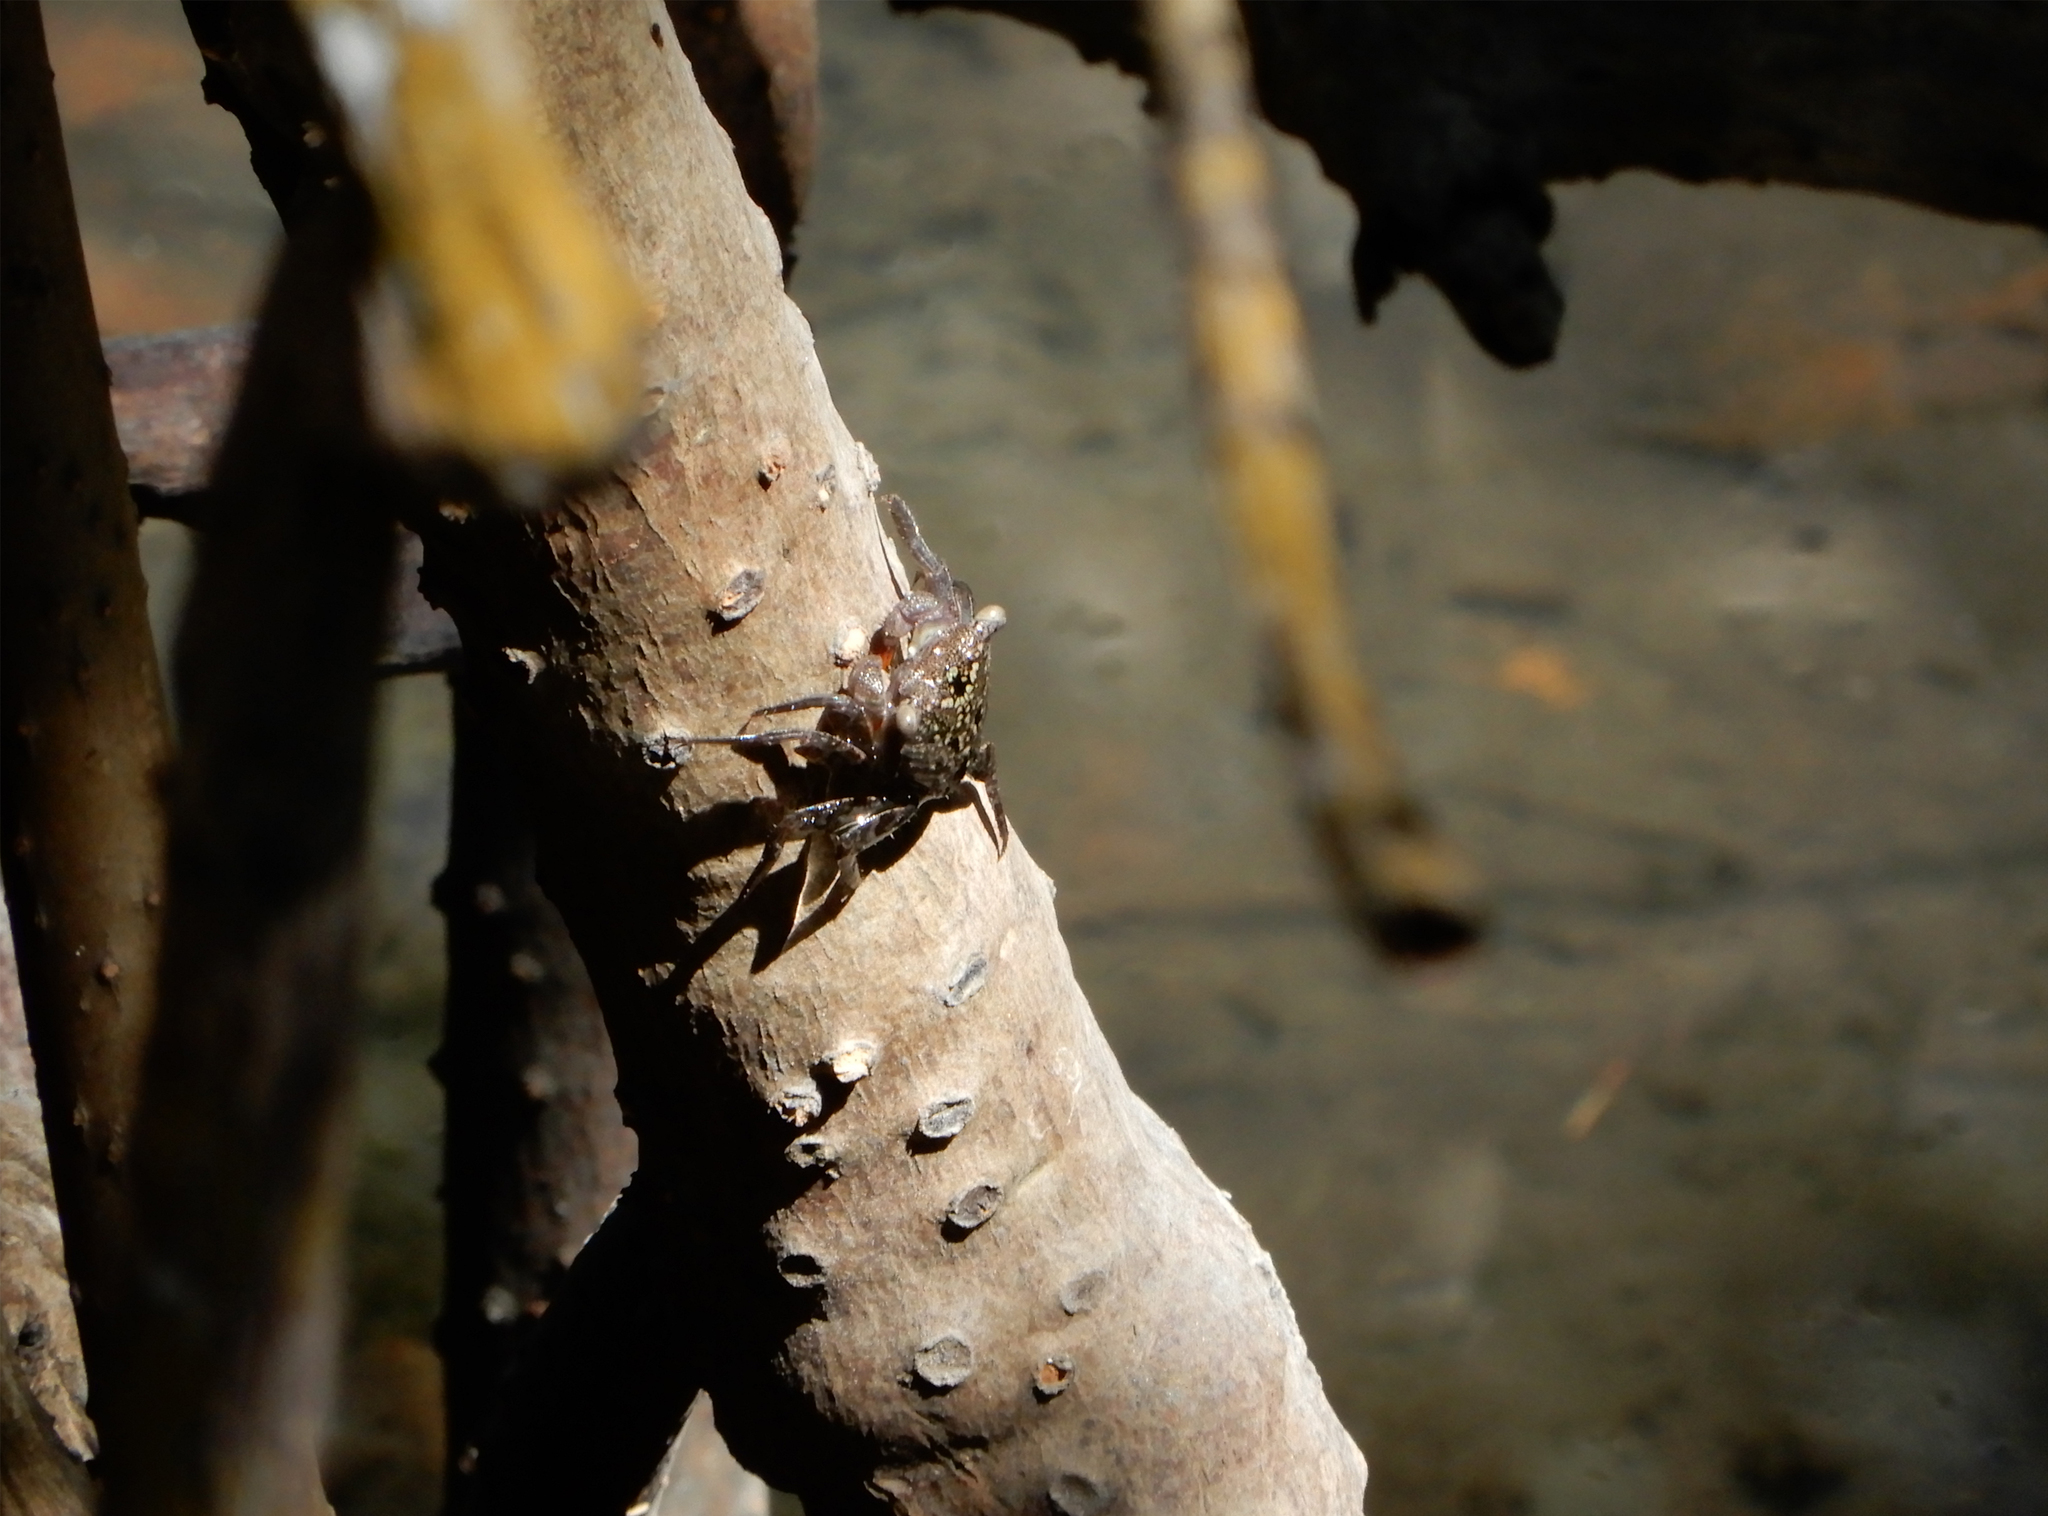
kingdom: Animalia
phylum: Arthropoda
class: Malacostraca
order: Decapoda
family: Sesarmidae
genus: Aratus
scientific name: Aratus pisonii
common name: Mangrove crab
